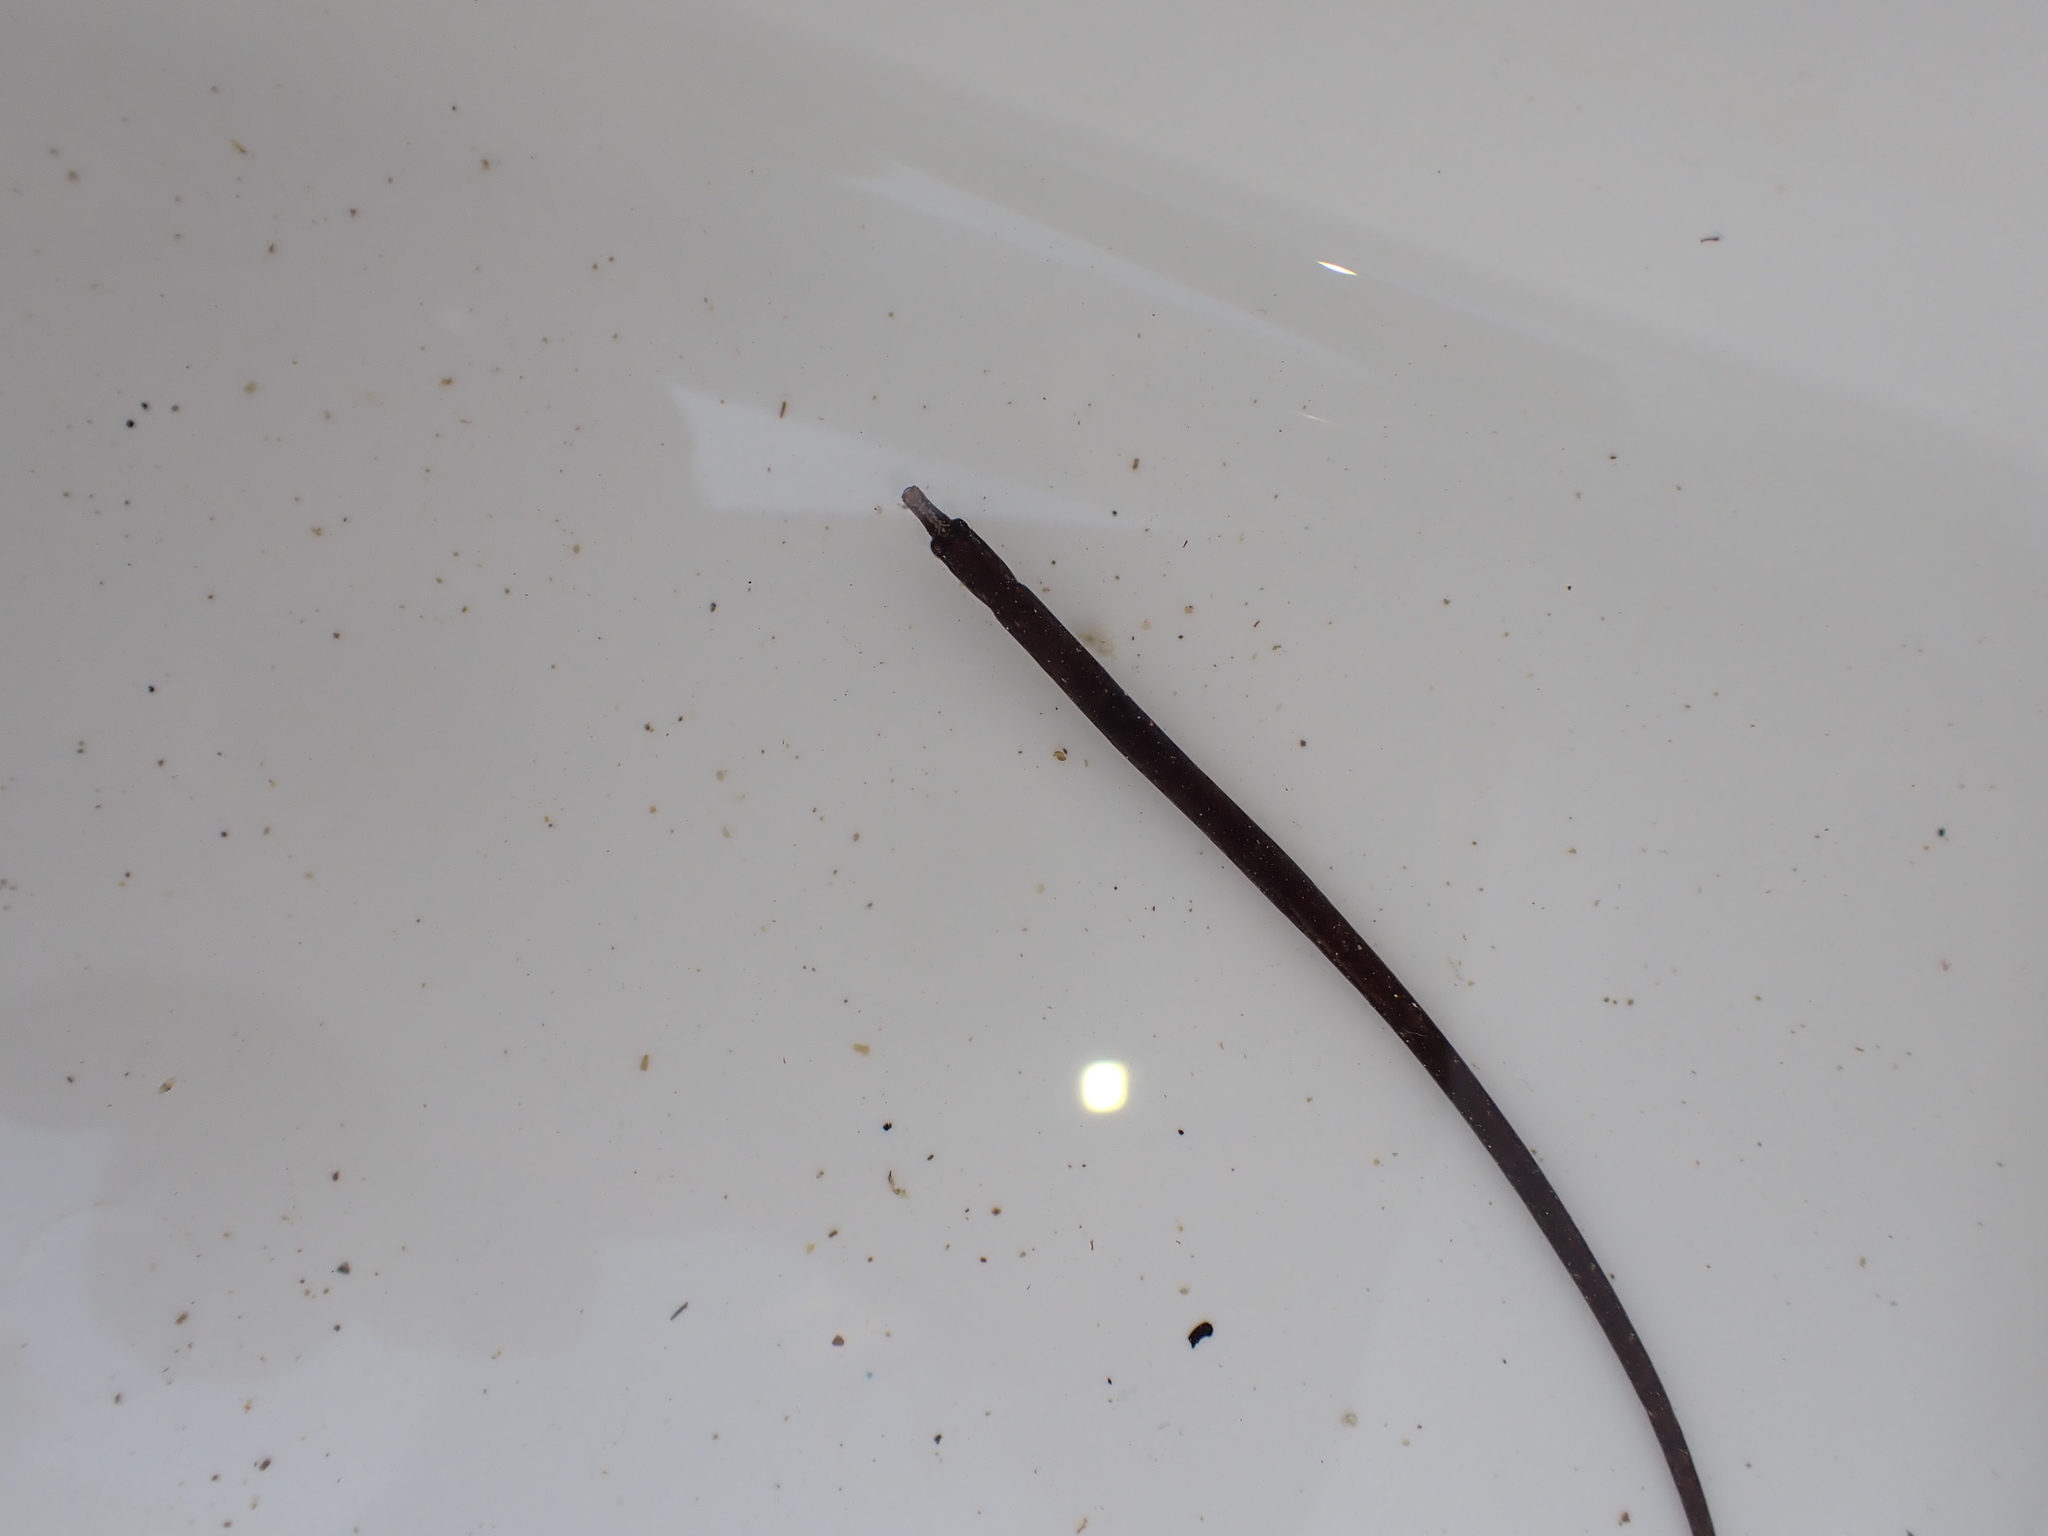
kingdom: Animalia
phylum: Chordata
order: Syngnathiformes
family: Syngnathidae
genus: Nerophis
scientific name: Nerophis lumbriciformis
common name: Worm pipefish
